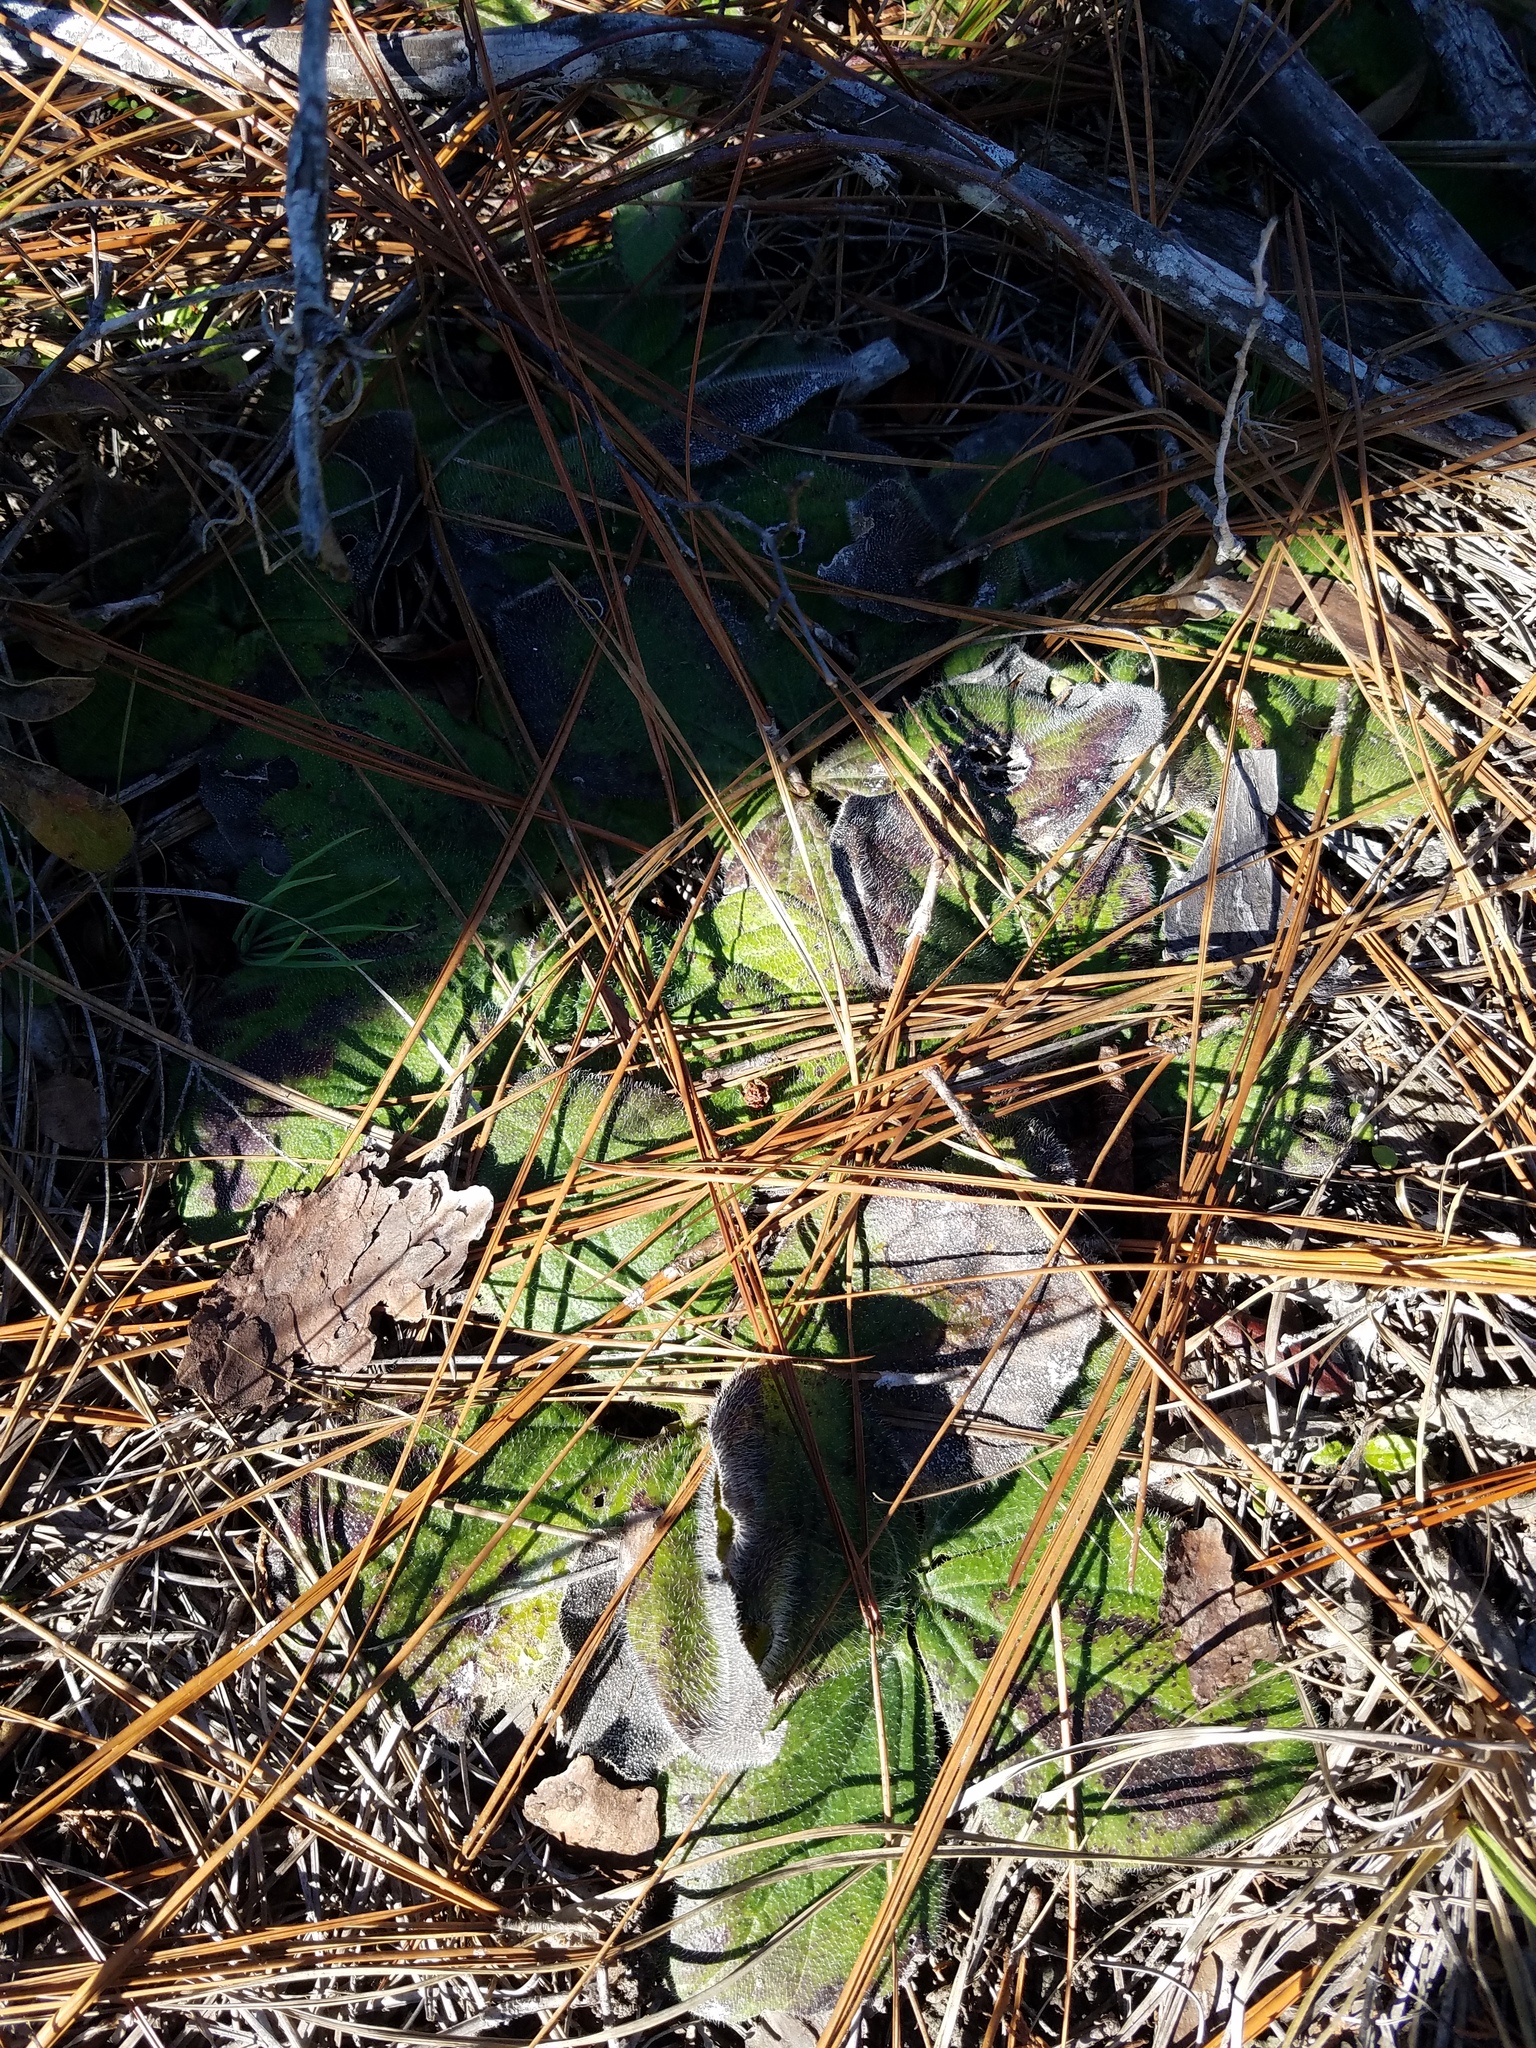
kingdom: Plantae
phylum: Tracheophyta
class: Magnoliopsida
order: Asterales
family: Asteraceae
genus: Helianthus
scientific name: Helianthus radula
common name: Pineland sunflower
